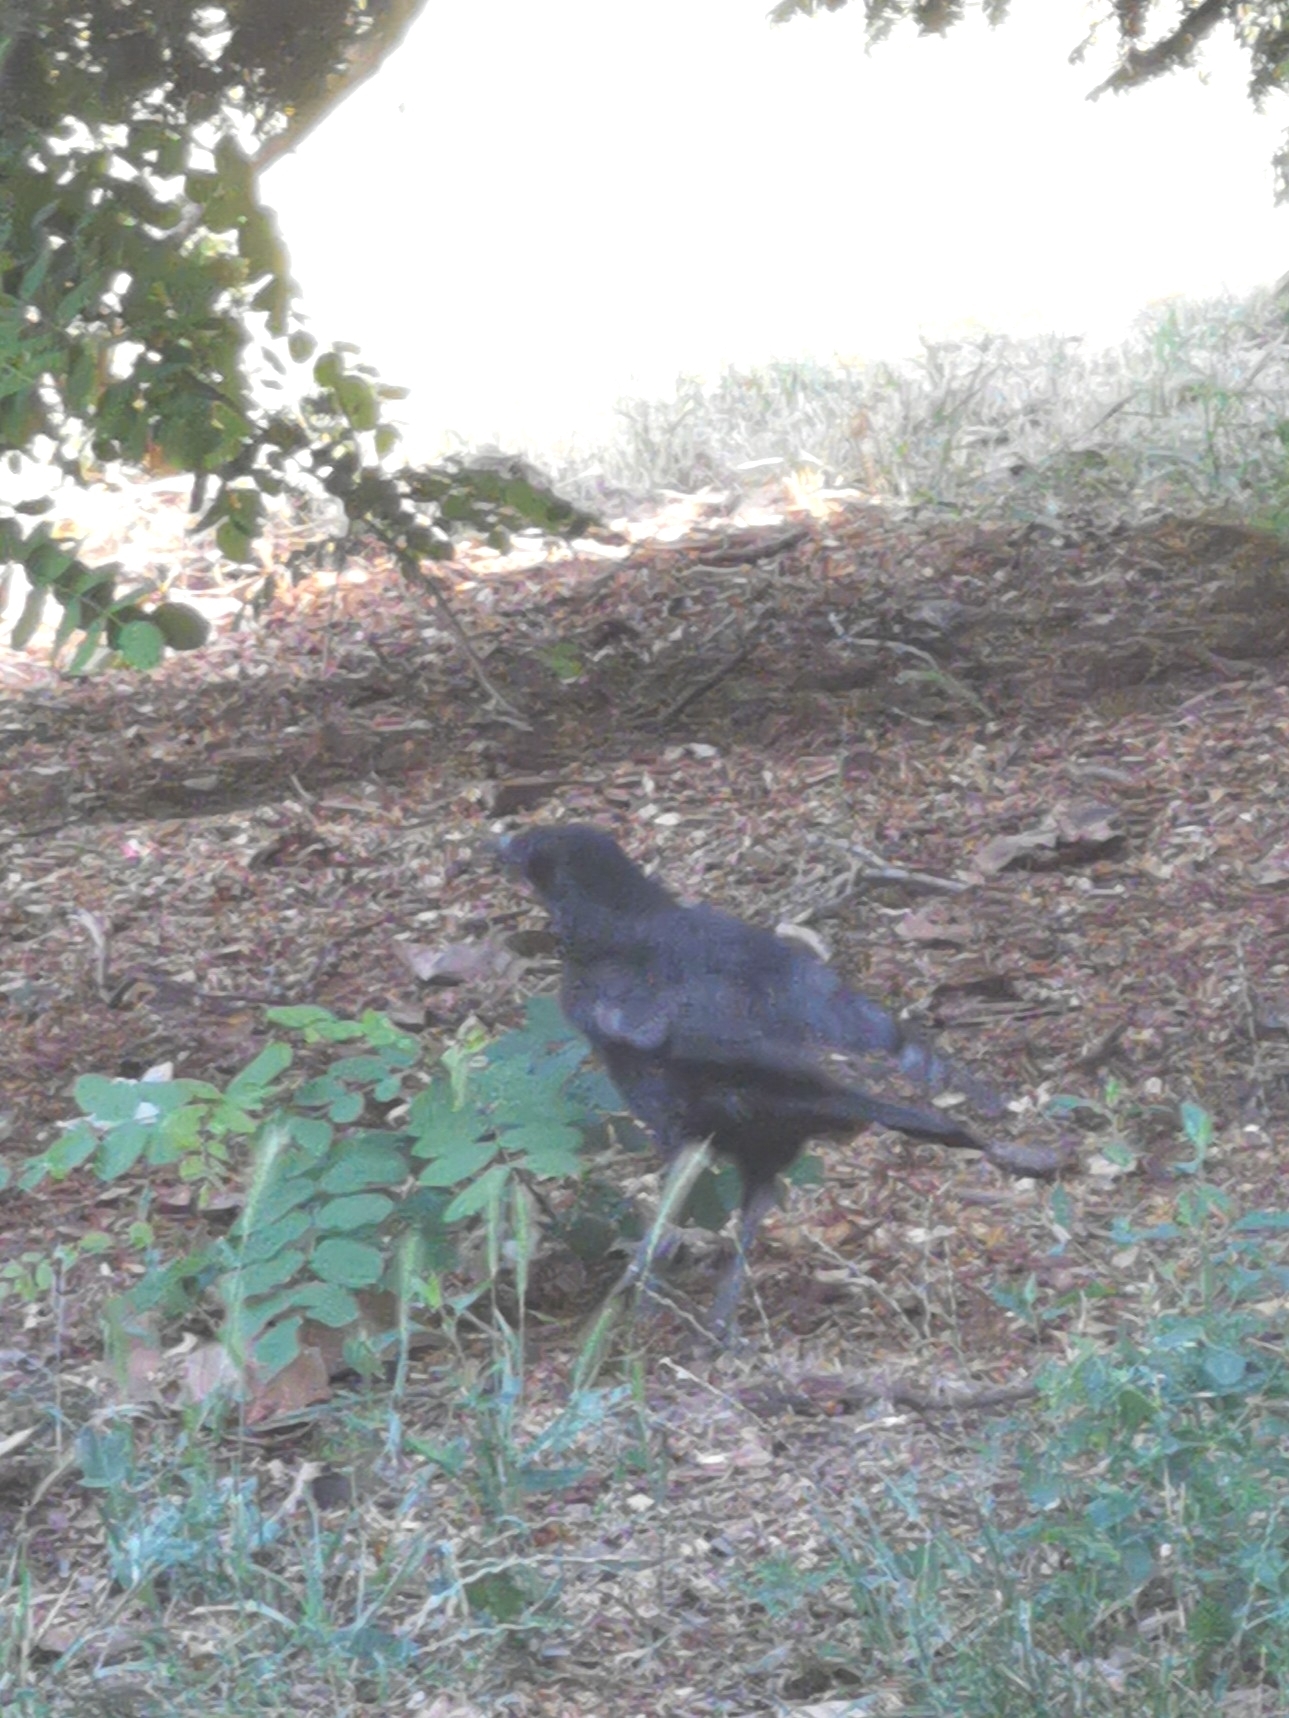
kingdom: Animalia
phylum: Chordata
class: Aves
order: Passeriformes
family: Corvidae
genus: Corvus
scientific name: Corvus corone
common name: Carrion crow
